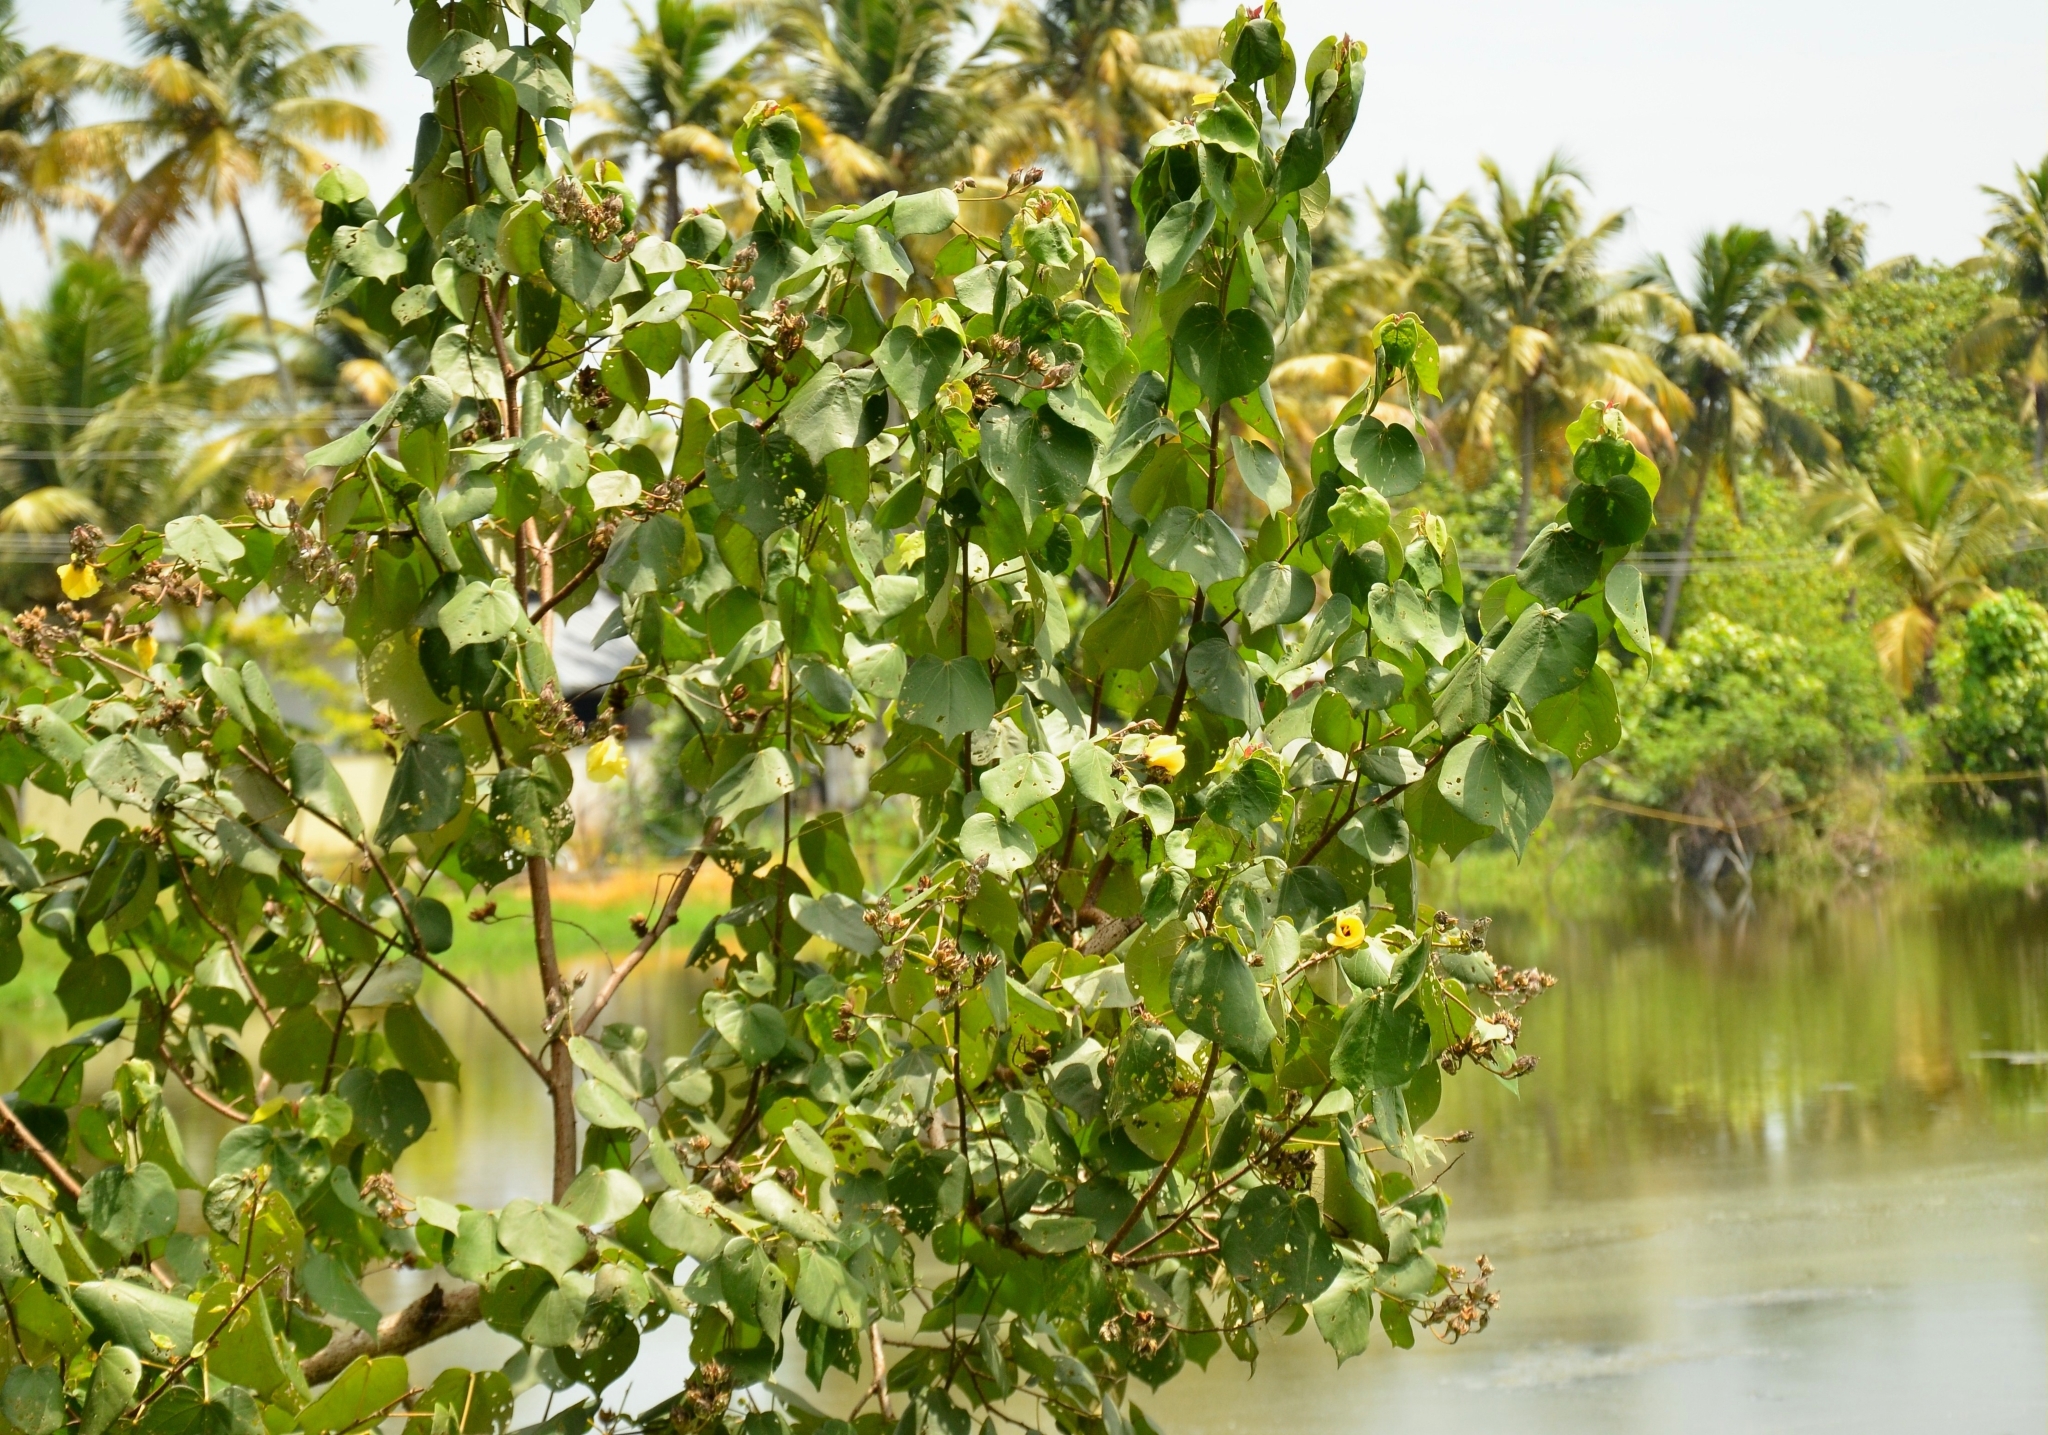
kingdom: Plantae
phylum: Tracheophyta
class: Magnoliopsida
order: Malvales
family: Malvaceae
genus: Talipariti
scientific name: Talipariti tiliaceum
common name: Sea hibiscus
